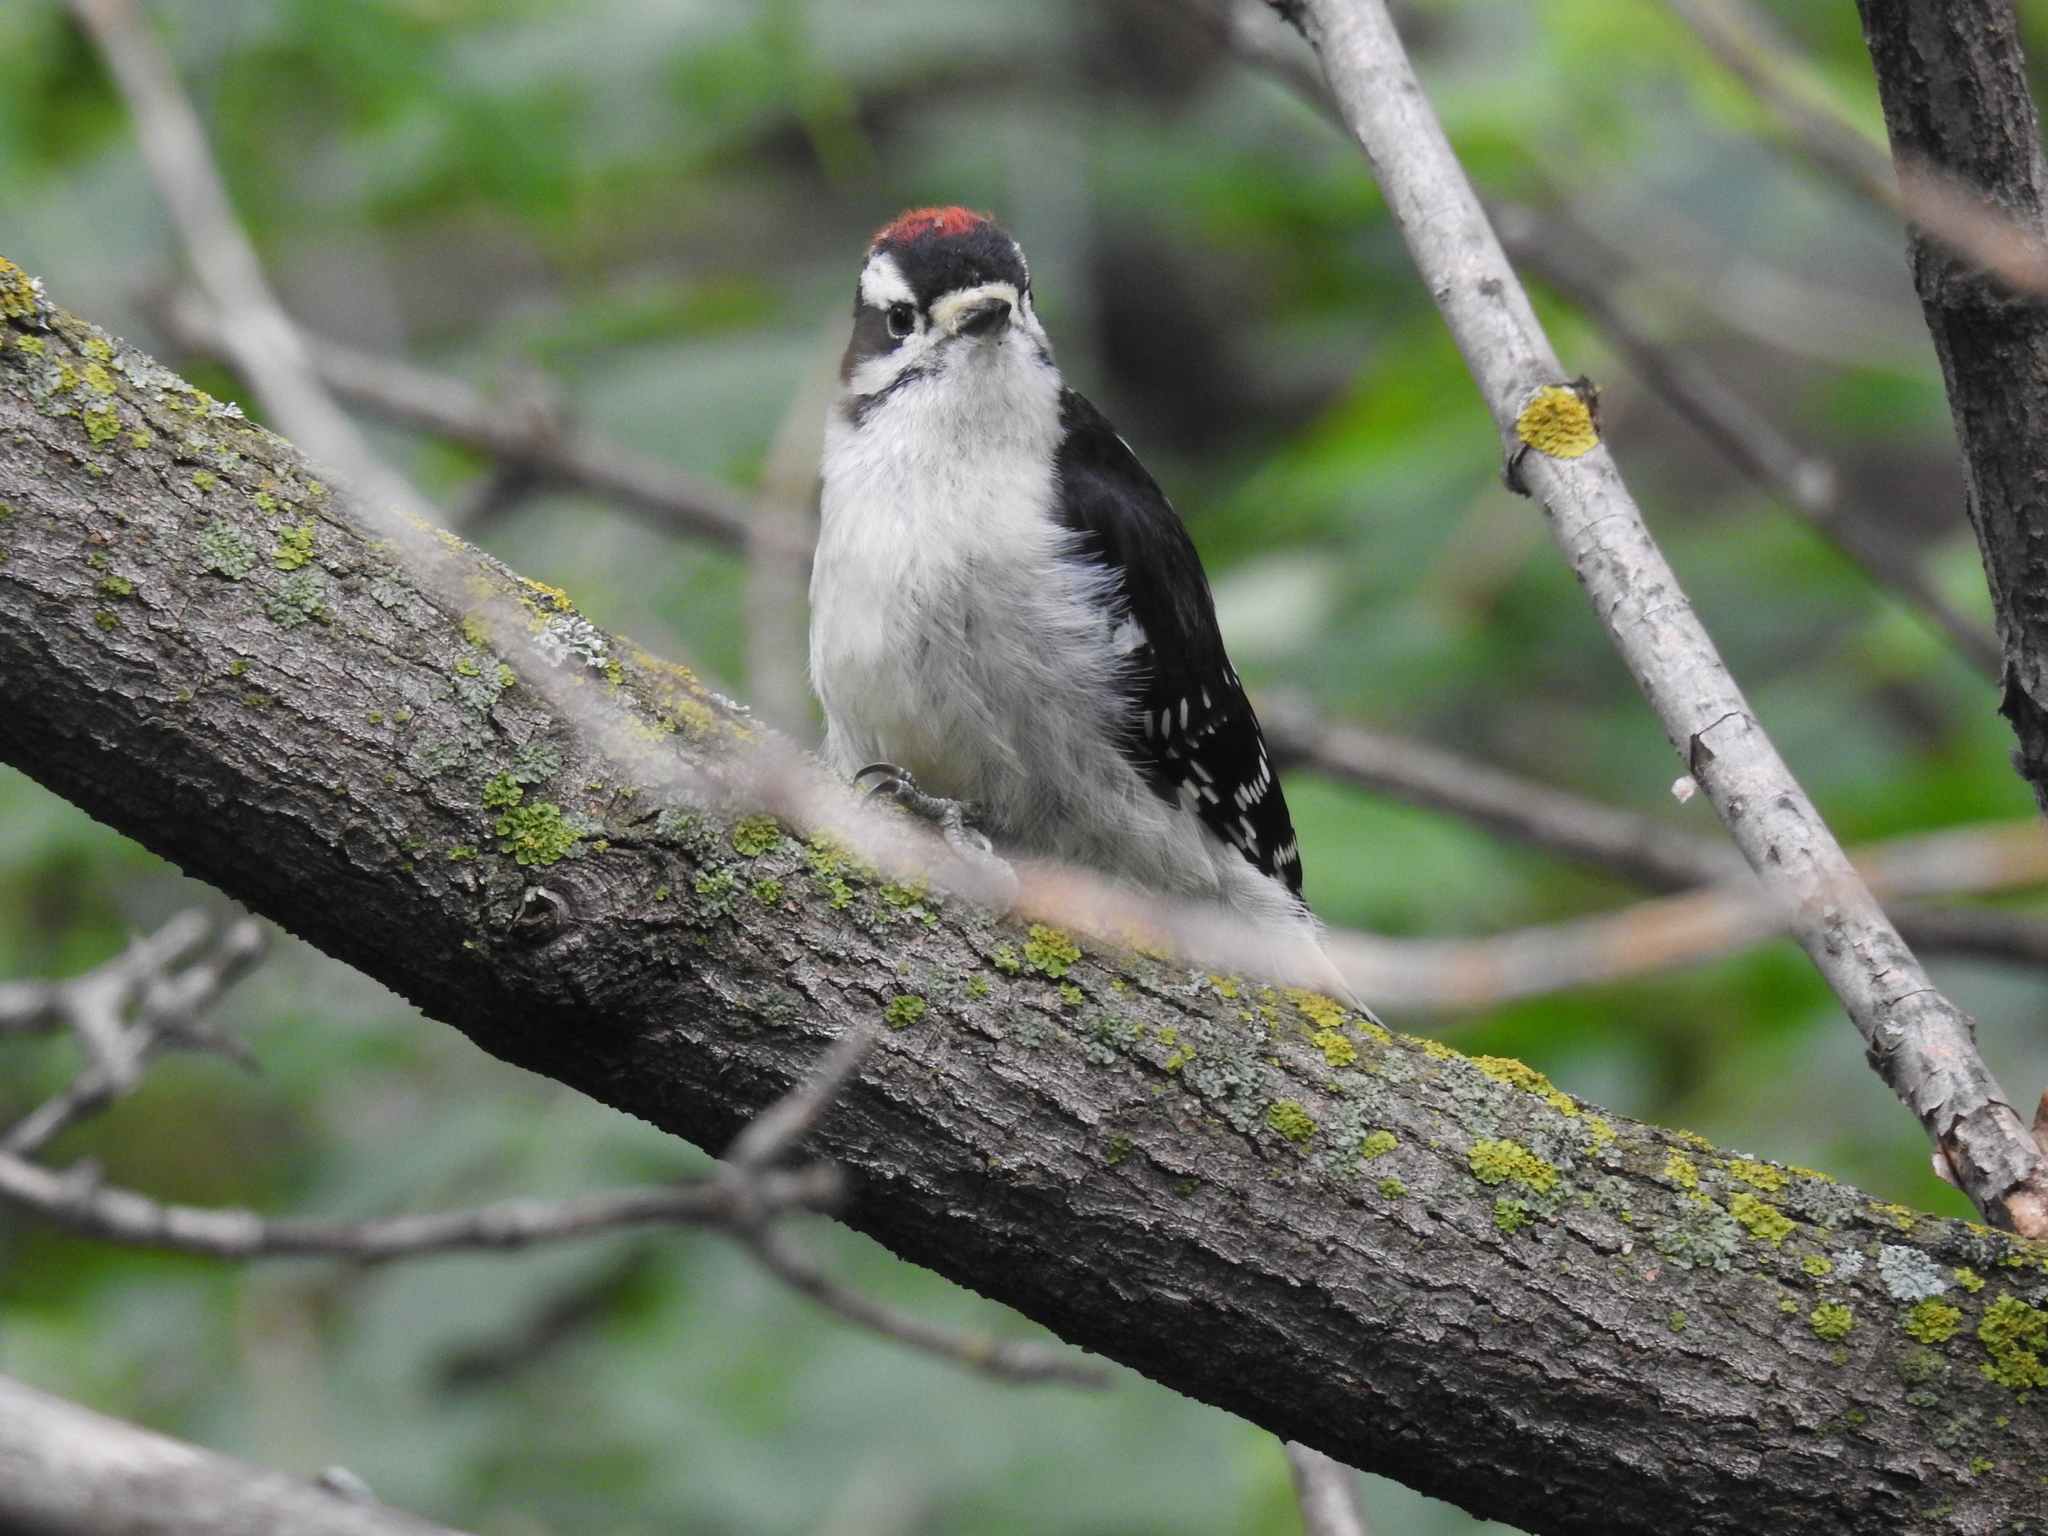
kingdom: Animalia
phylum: Chordata
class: Aves
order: Piciformes
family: Picidae
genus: Dryobates
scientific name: Dryobates pubescens
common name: Downy woodpecker
